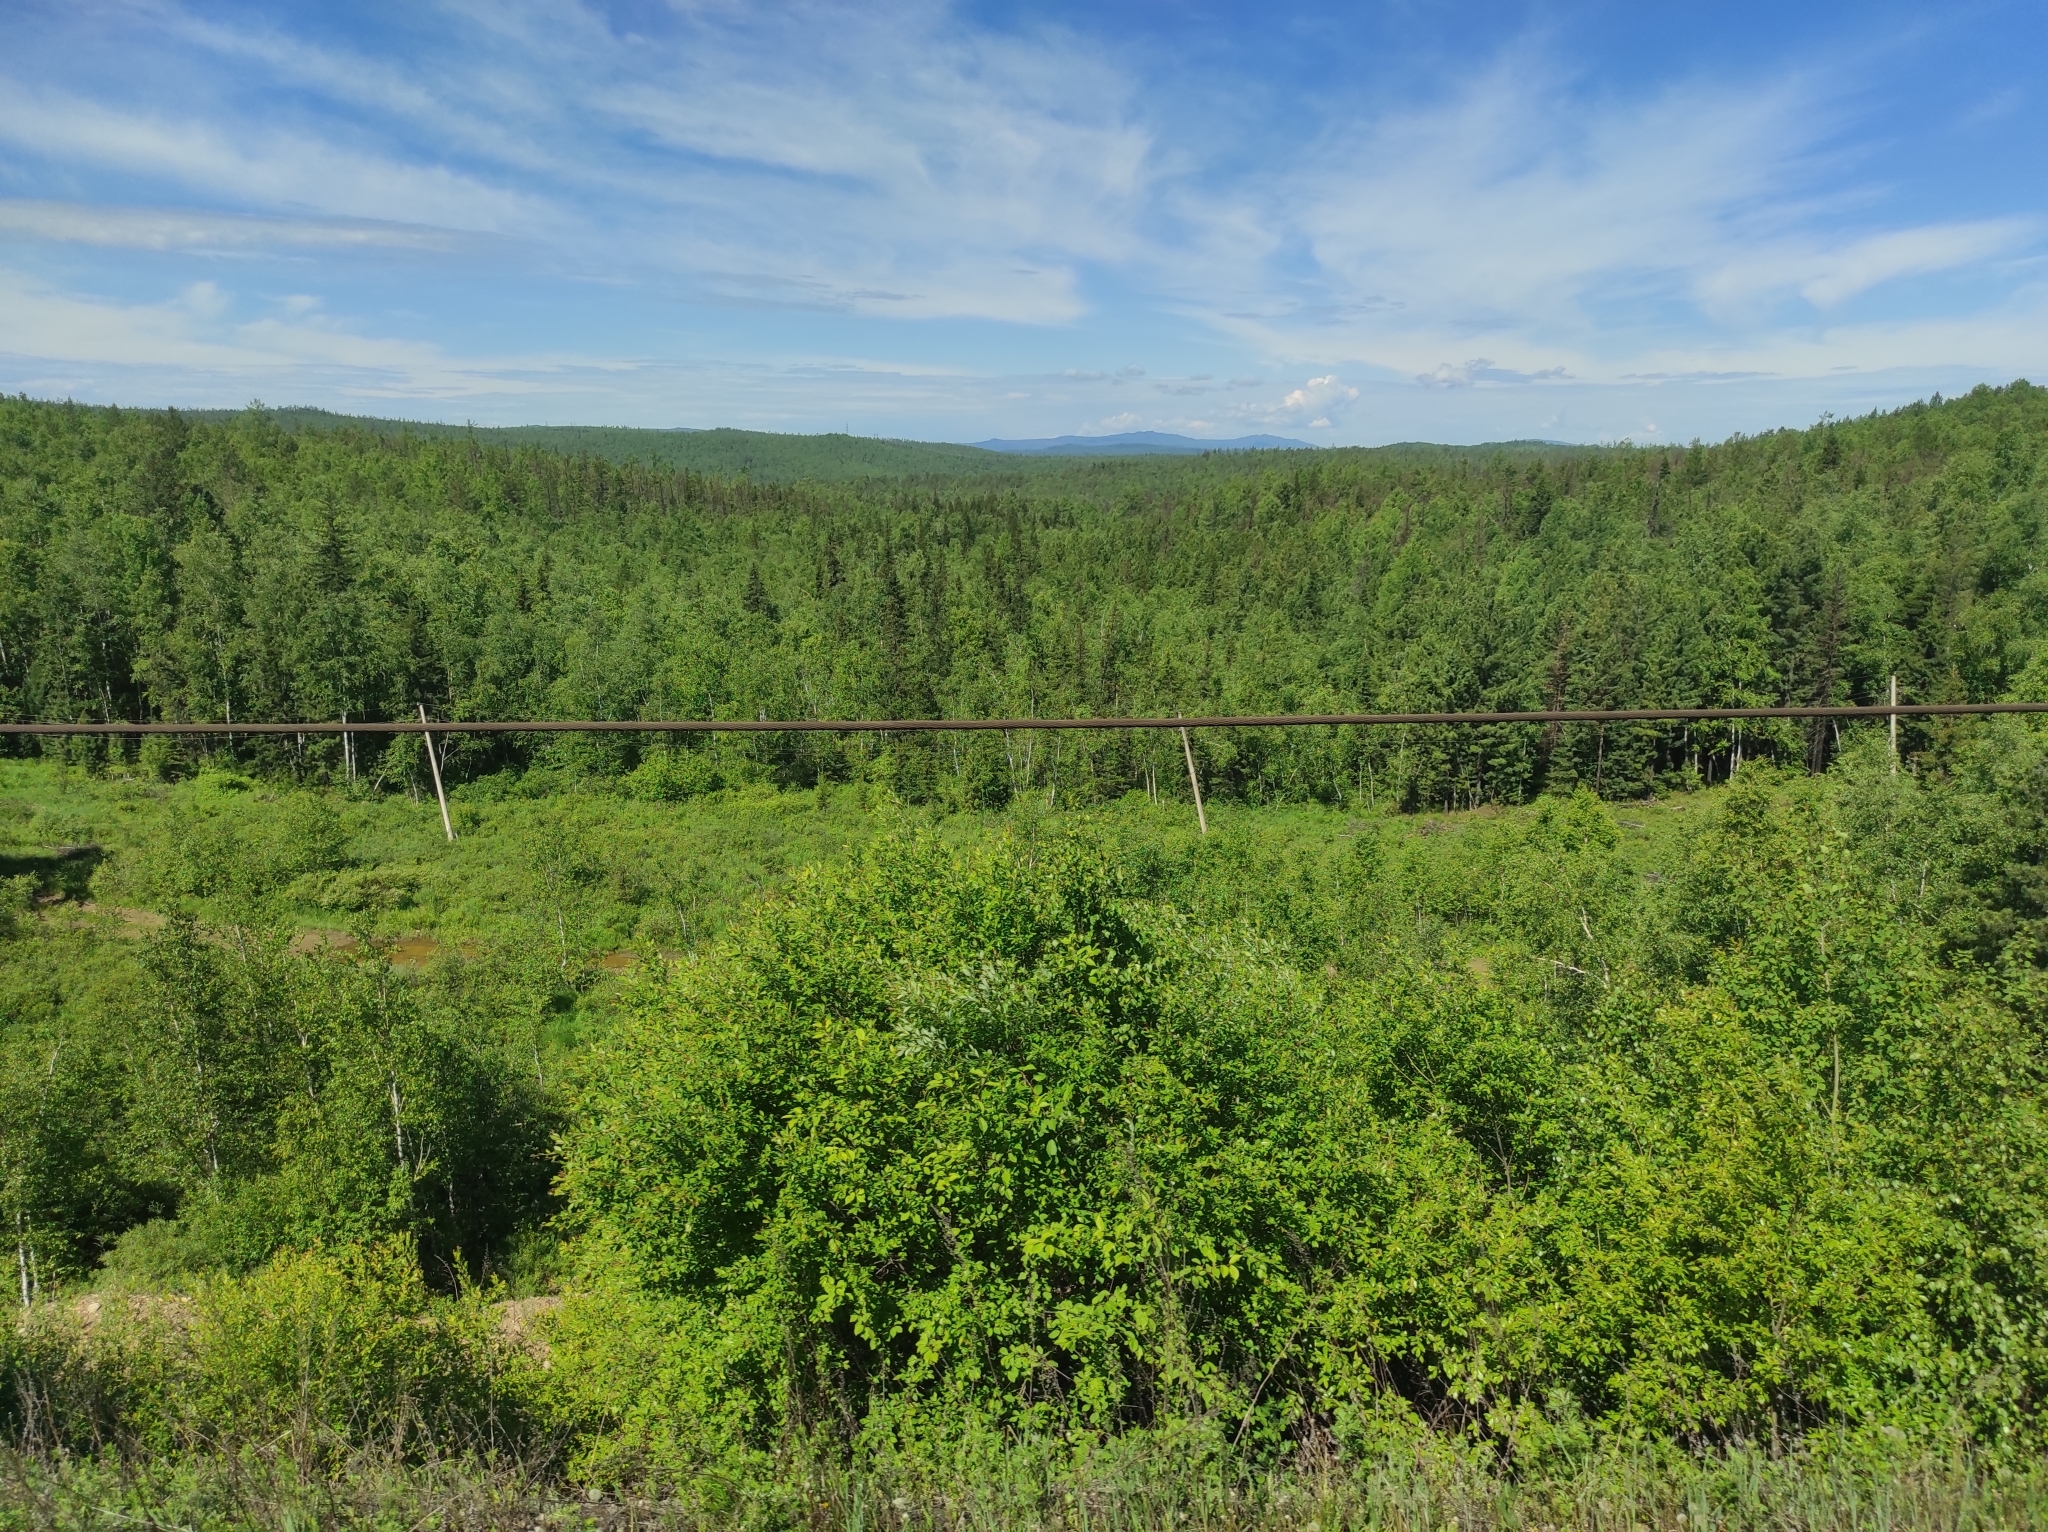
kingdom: Plantae
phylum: Tracheophyta
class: Pinopsida
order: Pinales
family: Pinaceae
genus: Pinus
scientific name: Pinus sylvestris
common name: Scots pine
